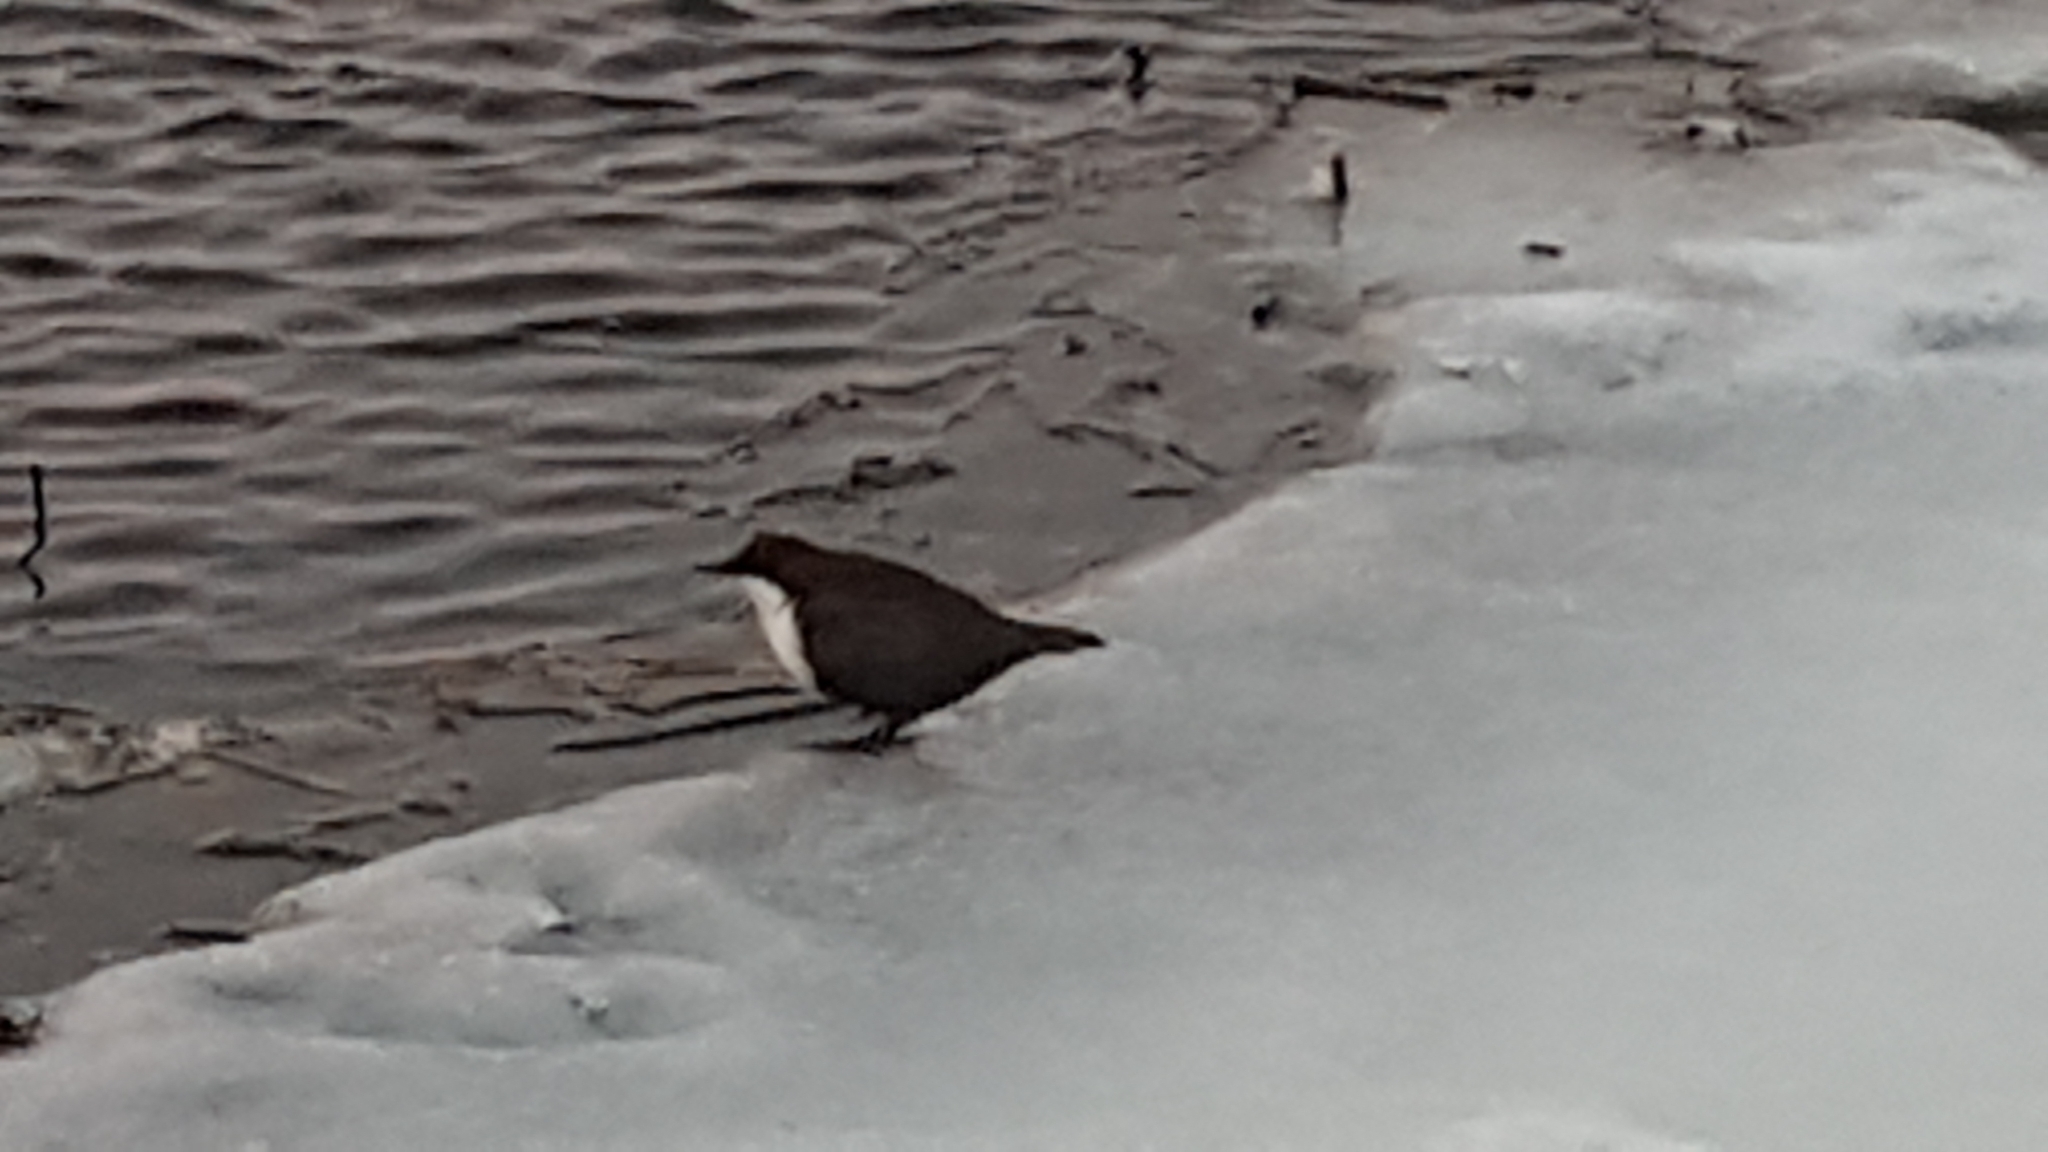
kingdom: Animalia
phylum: Chordata
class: Aves
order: Passeriformes
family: Cinclidae
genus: Cinclus
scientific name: Cinclus cinclus
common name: White-throated dipper
